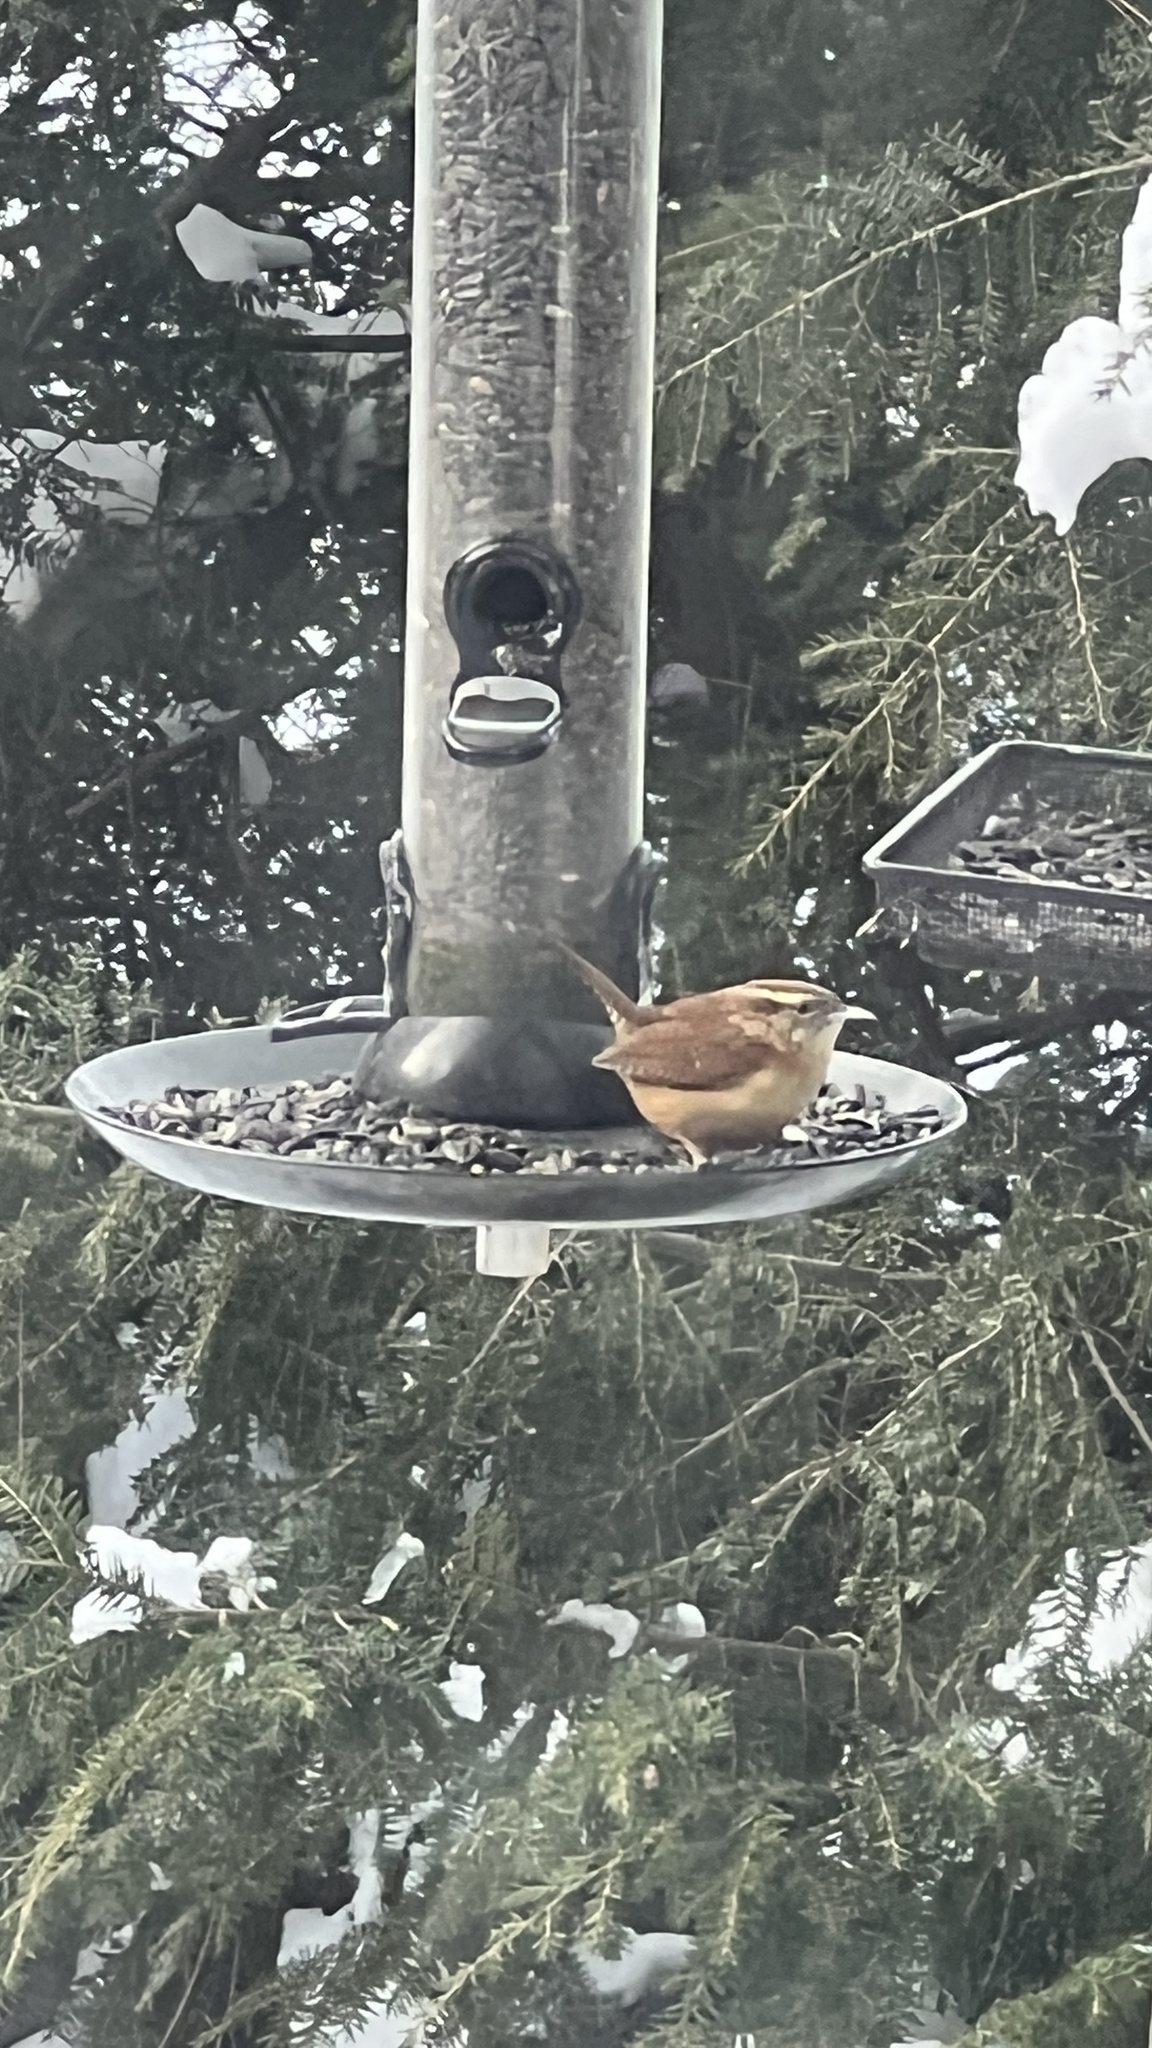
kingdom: Animalia
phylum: Chordata
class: Aves
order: Passeriformes
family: Troglodytidae
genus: Thryothorus
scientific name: Thryothorus ludovicianus
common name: Carolina wren
